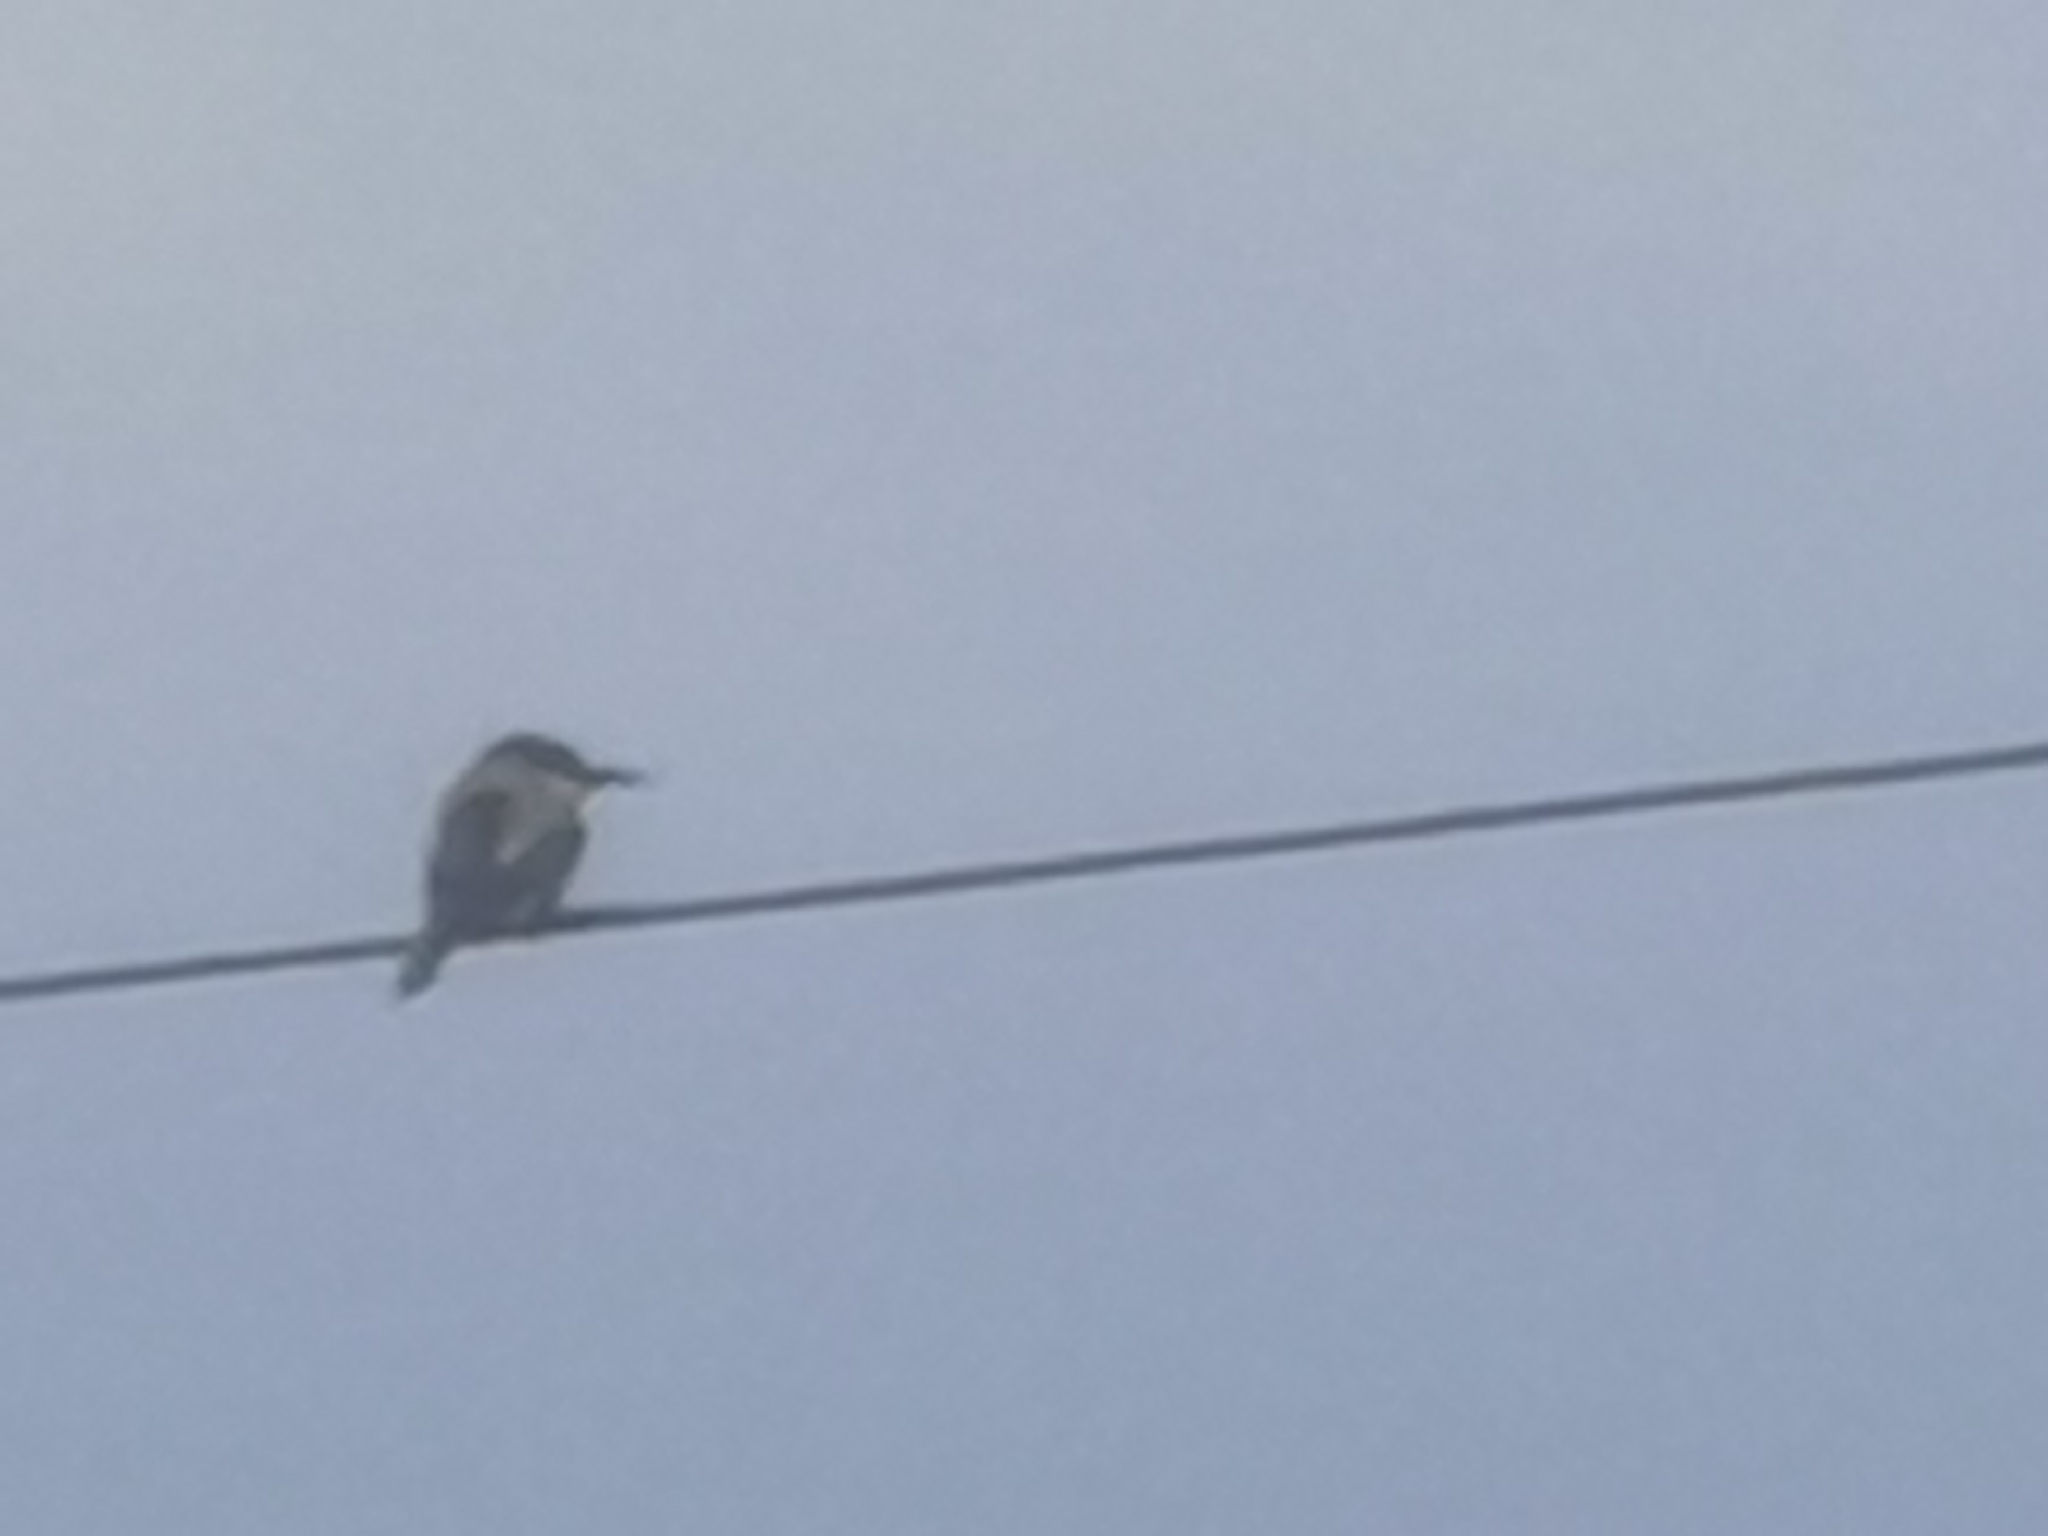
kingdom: Animalia
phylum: Chordata
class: Aves
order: Coraciiformes
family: Meropidae
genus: Merops
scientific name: Merops apiaster
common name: European bee-eater
